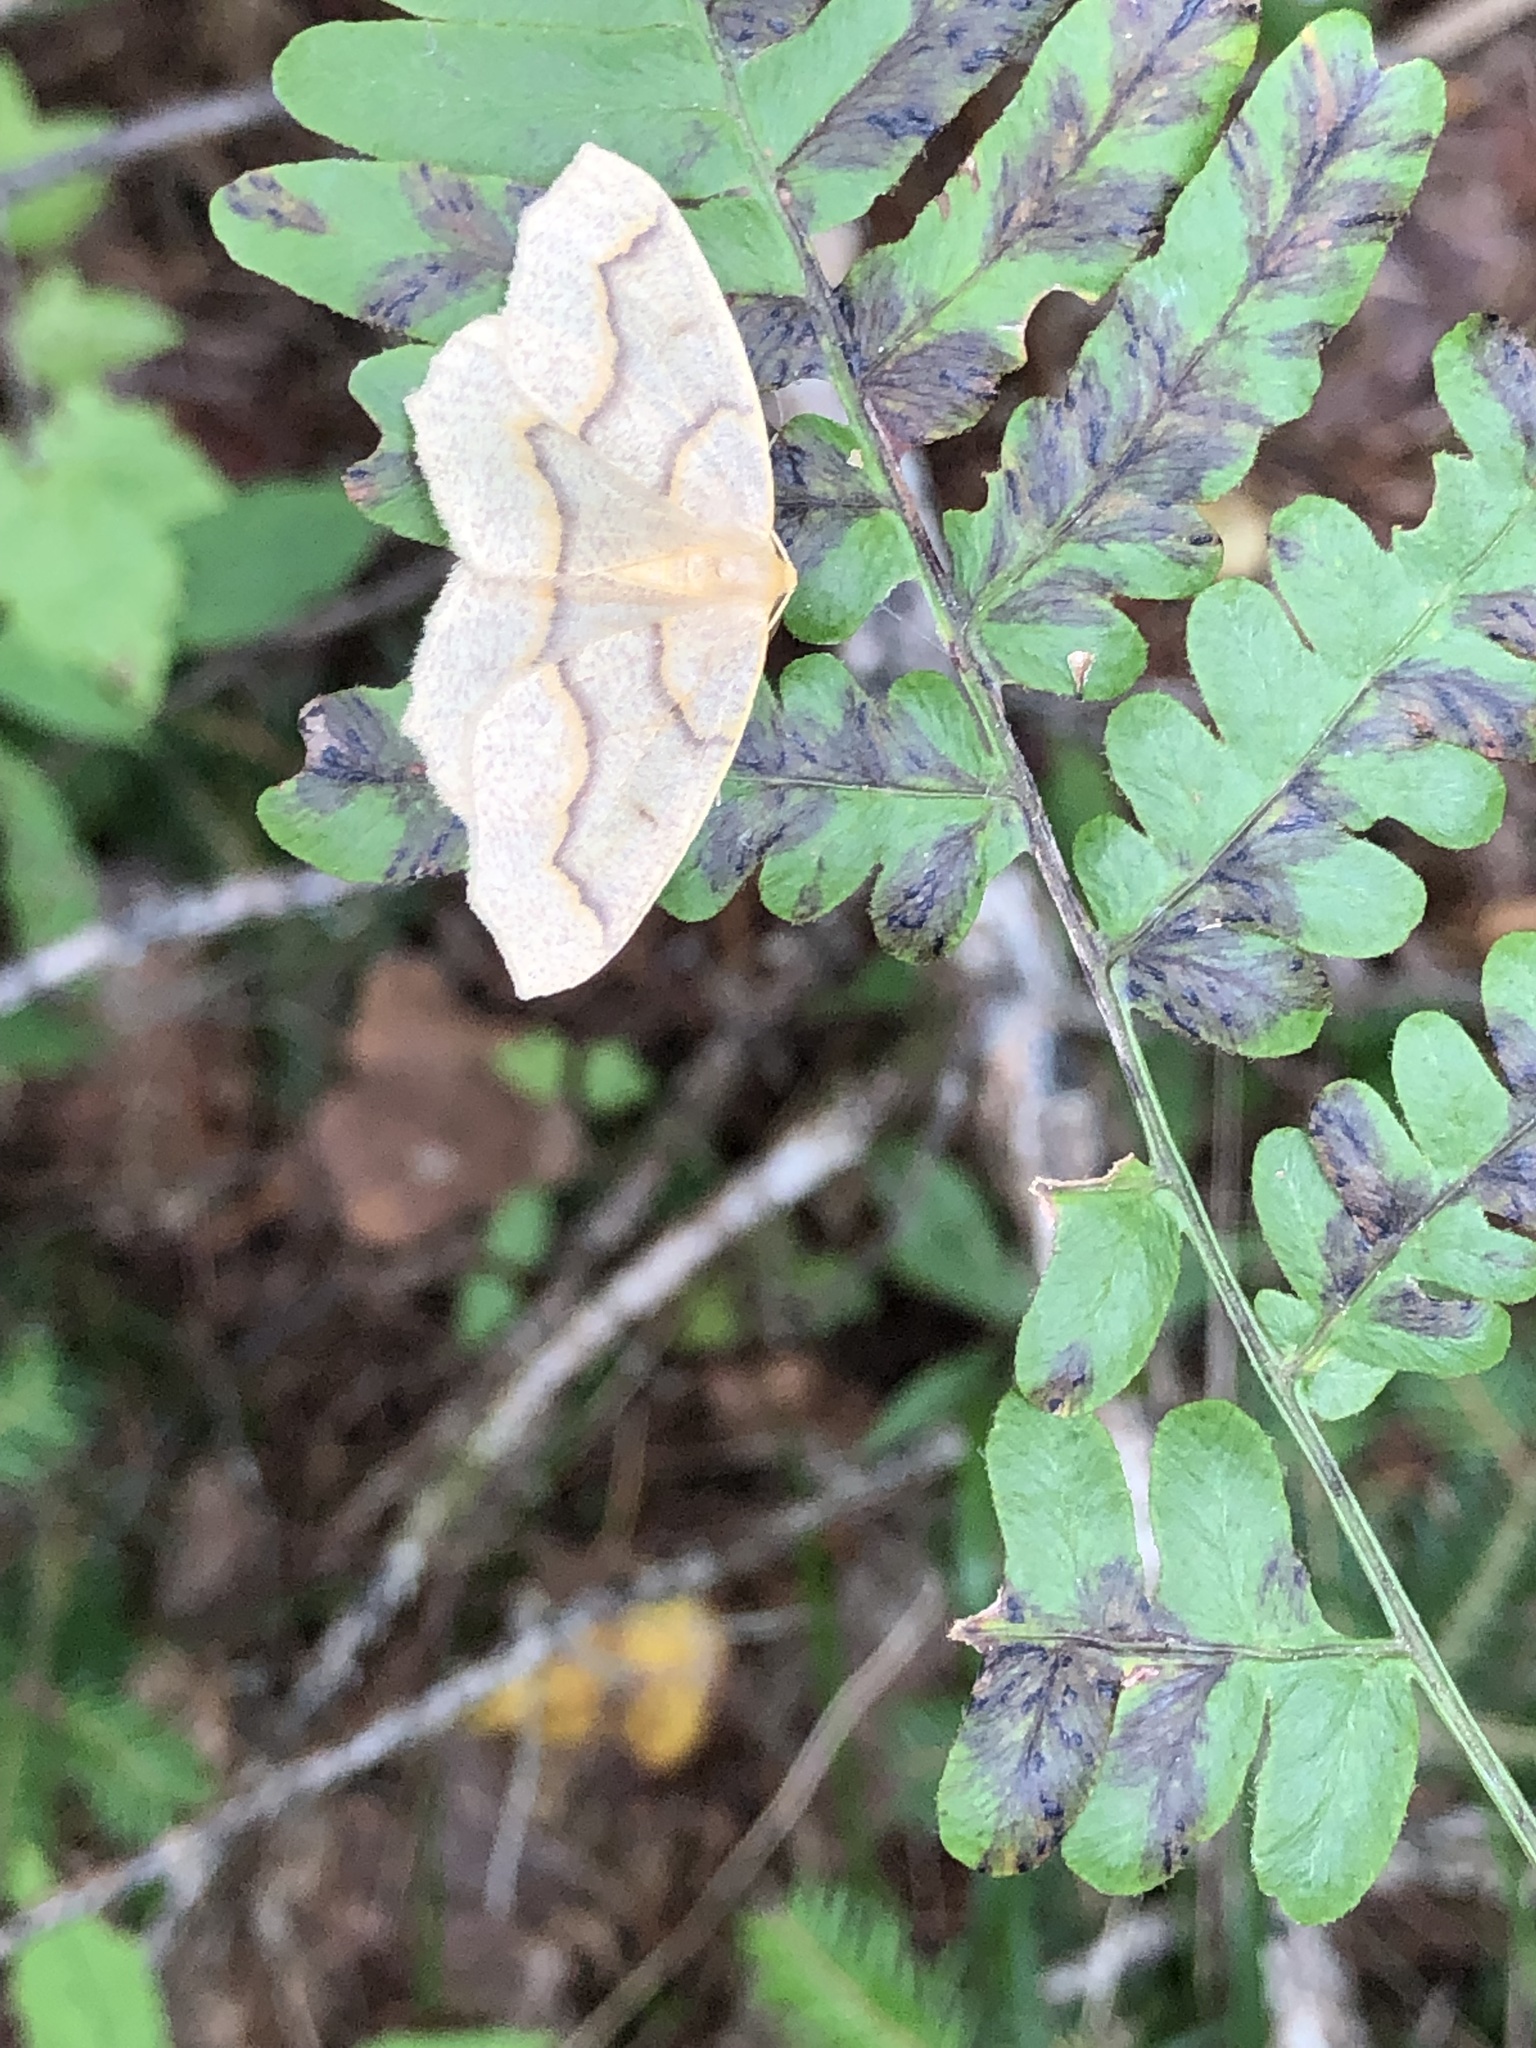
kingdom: Animalia
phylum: Arthropoda
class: Insecta
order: Lepidoptera
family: Geometridae
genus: Lambdina
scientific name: Lambdina fiscellaria
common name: Hemlock looper
